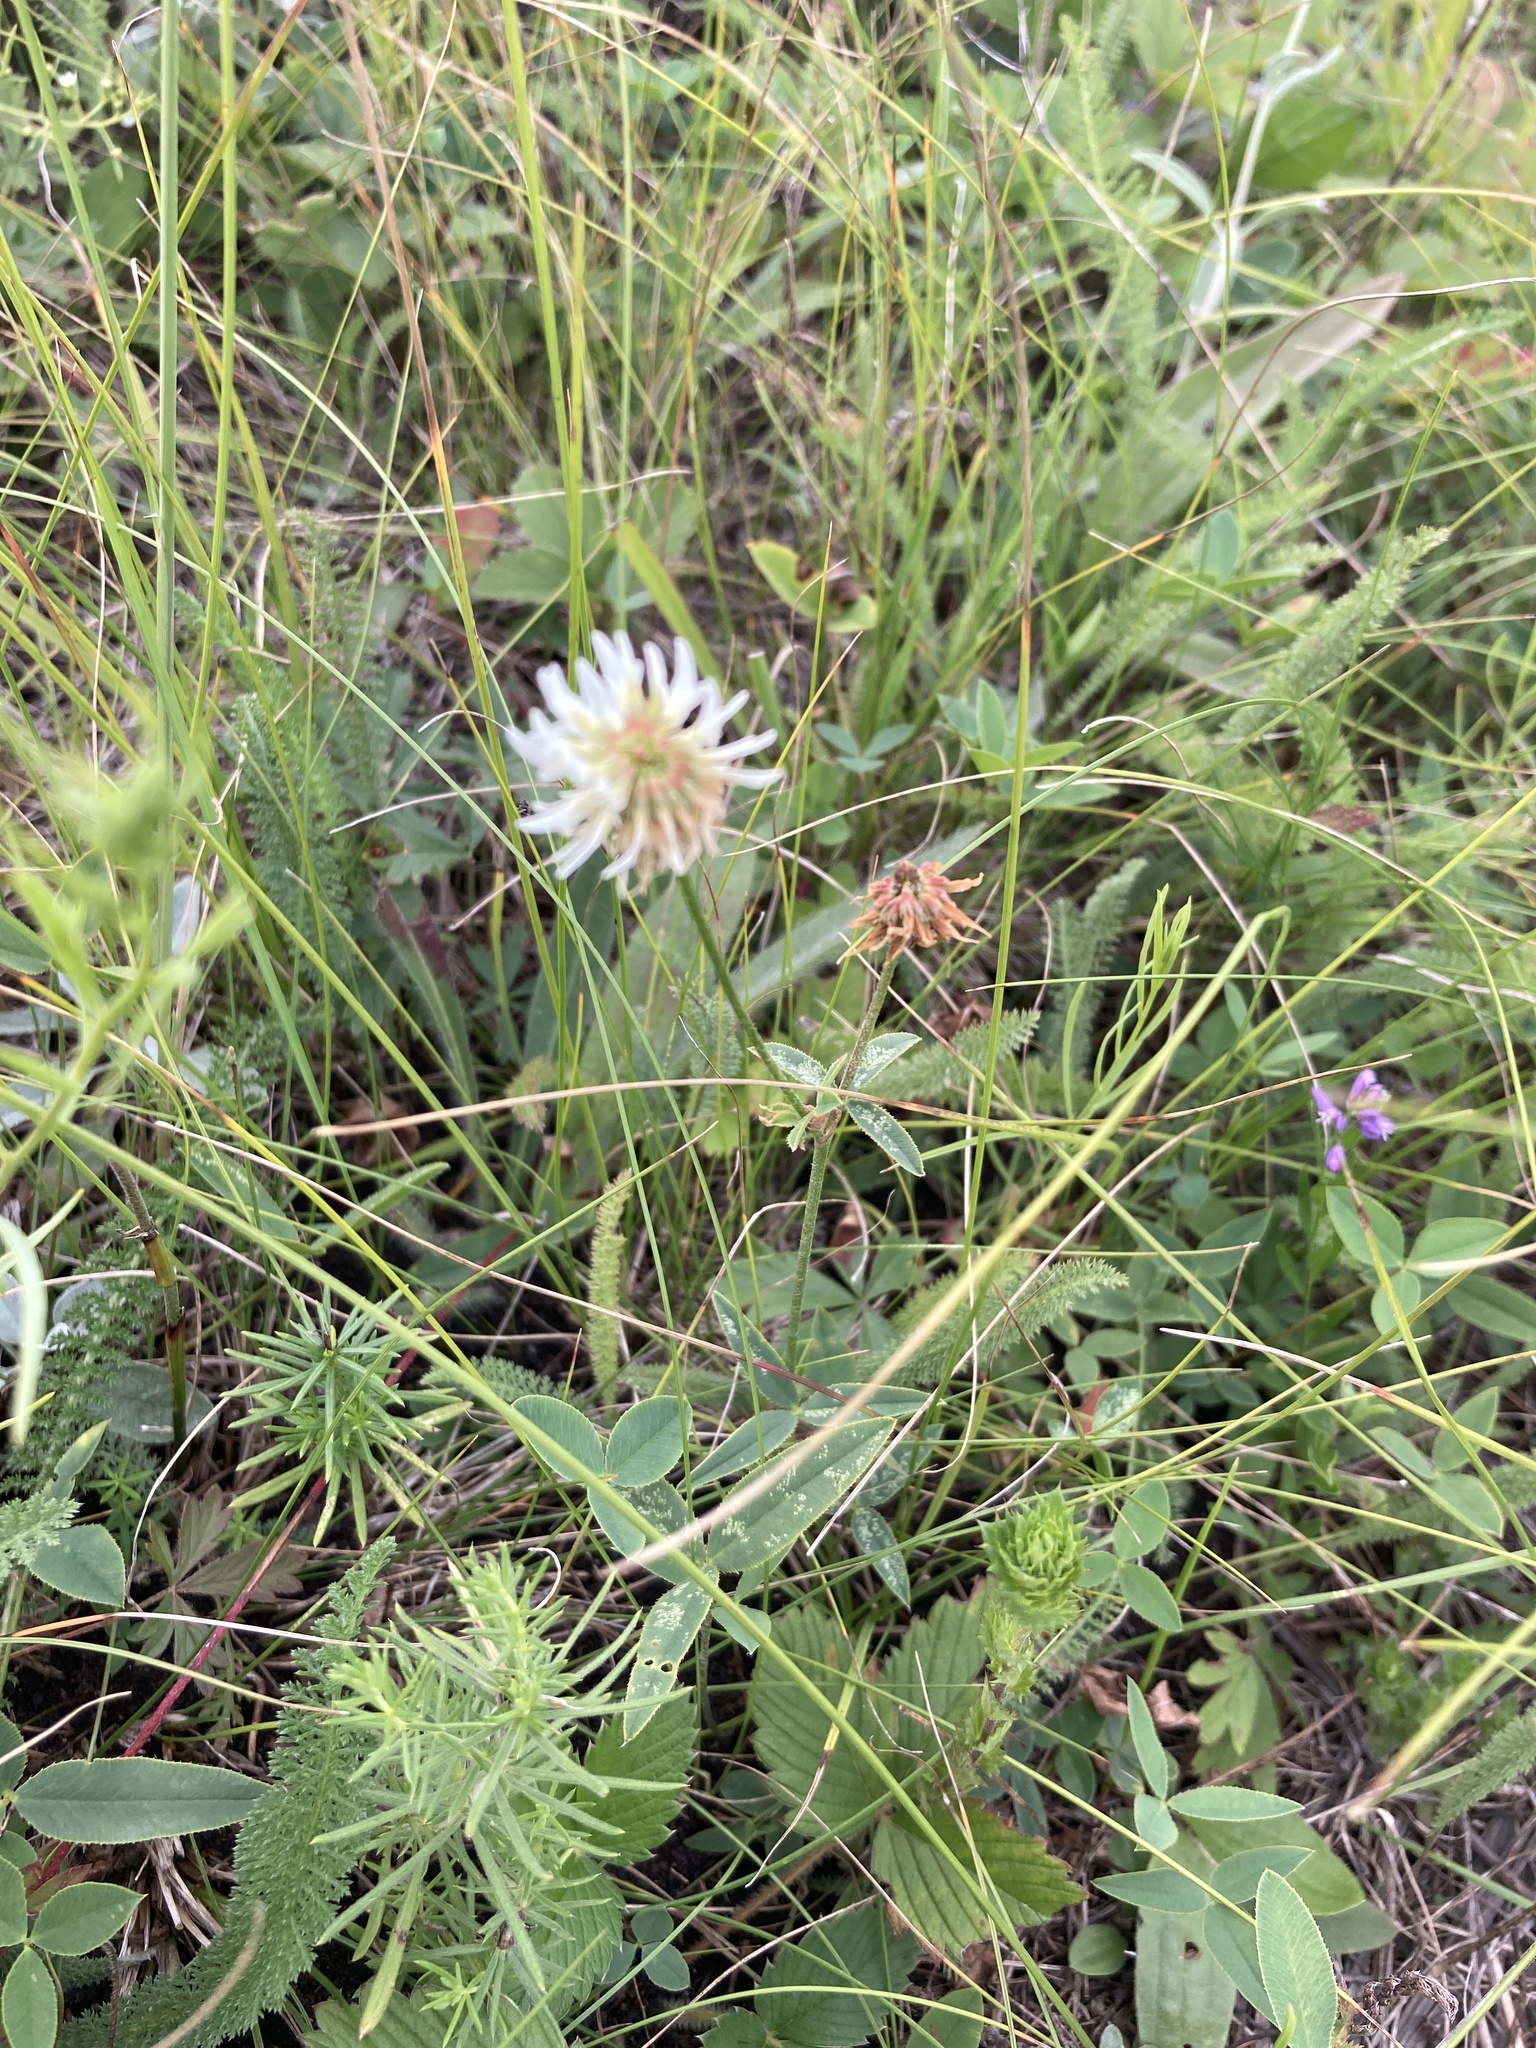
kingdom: Plantae
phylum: Tracheophyta
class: Magnoliopsida
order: Fabales
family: Fabaceae
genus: Trifolium
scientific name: Trifolium montanum
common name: Mountain clover
